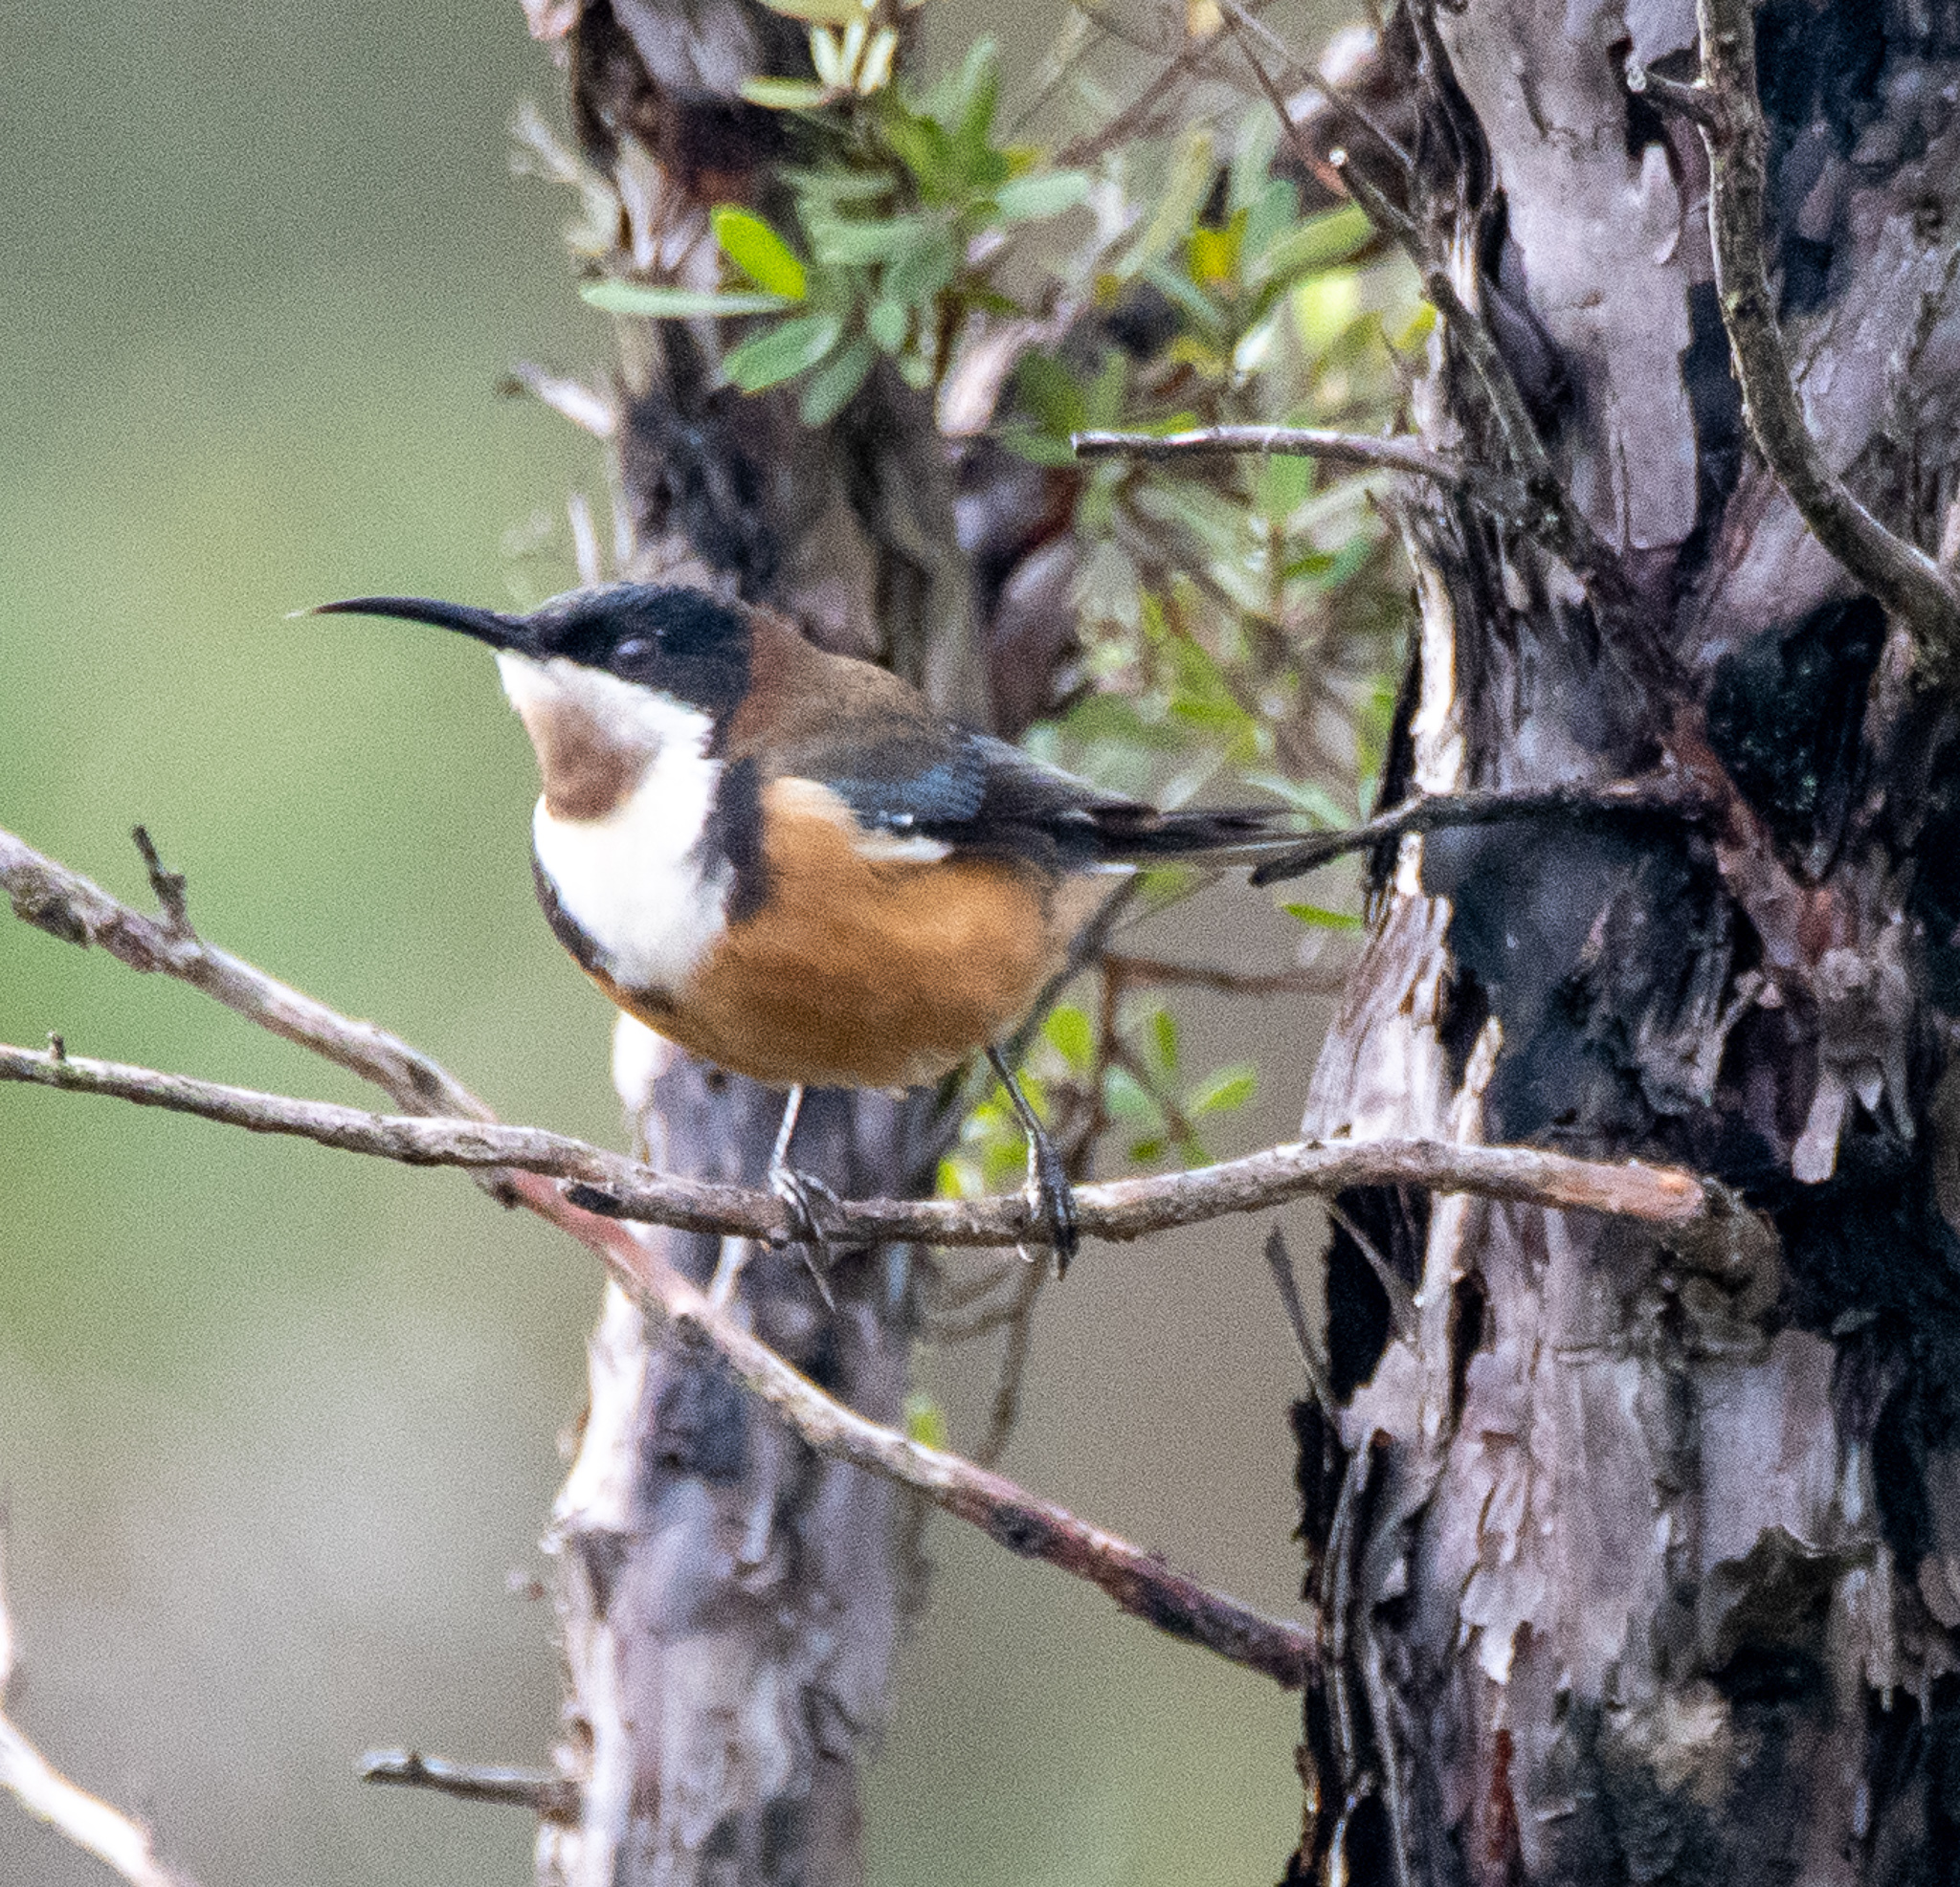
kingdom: Animalia
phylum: Chordata
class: Aves
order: Passeriformes
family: Meliphagidae
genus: Acanthorhynchus
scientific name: Acanthorhynchus tenuirostris
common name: Eastern spinebill
